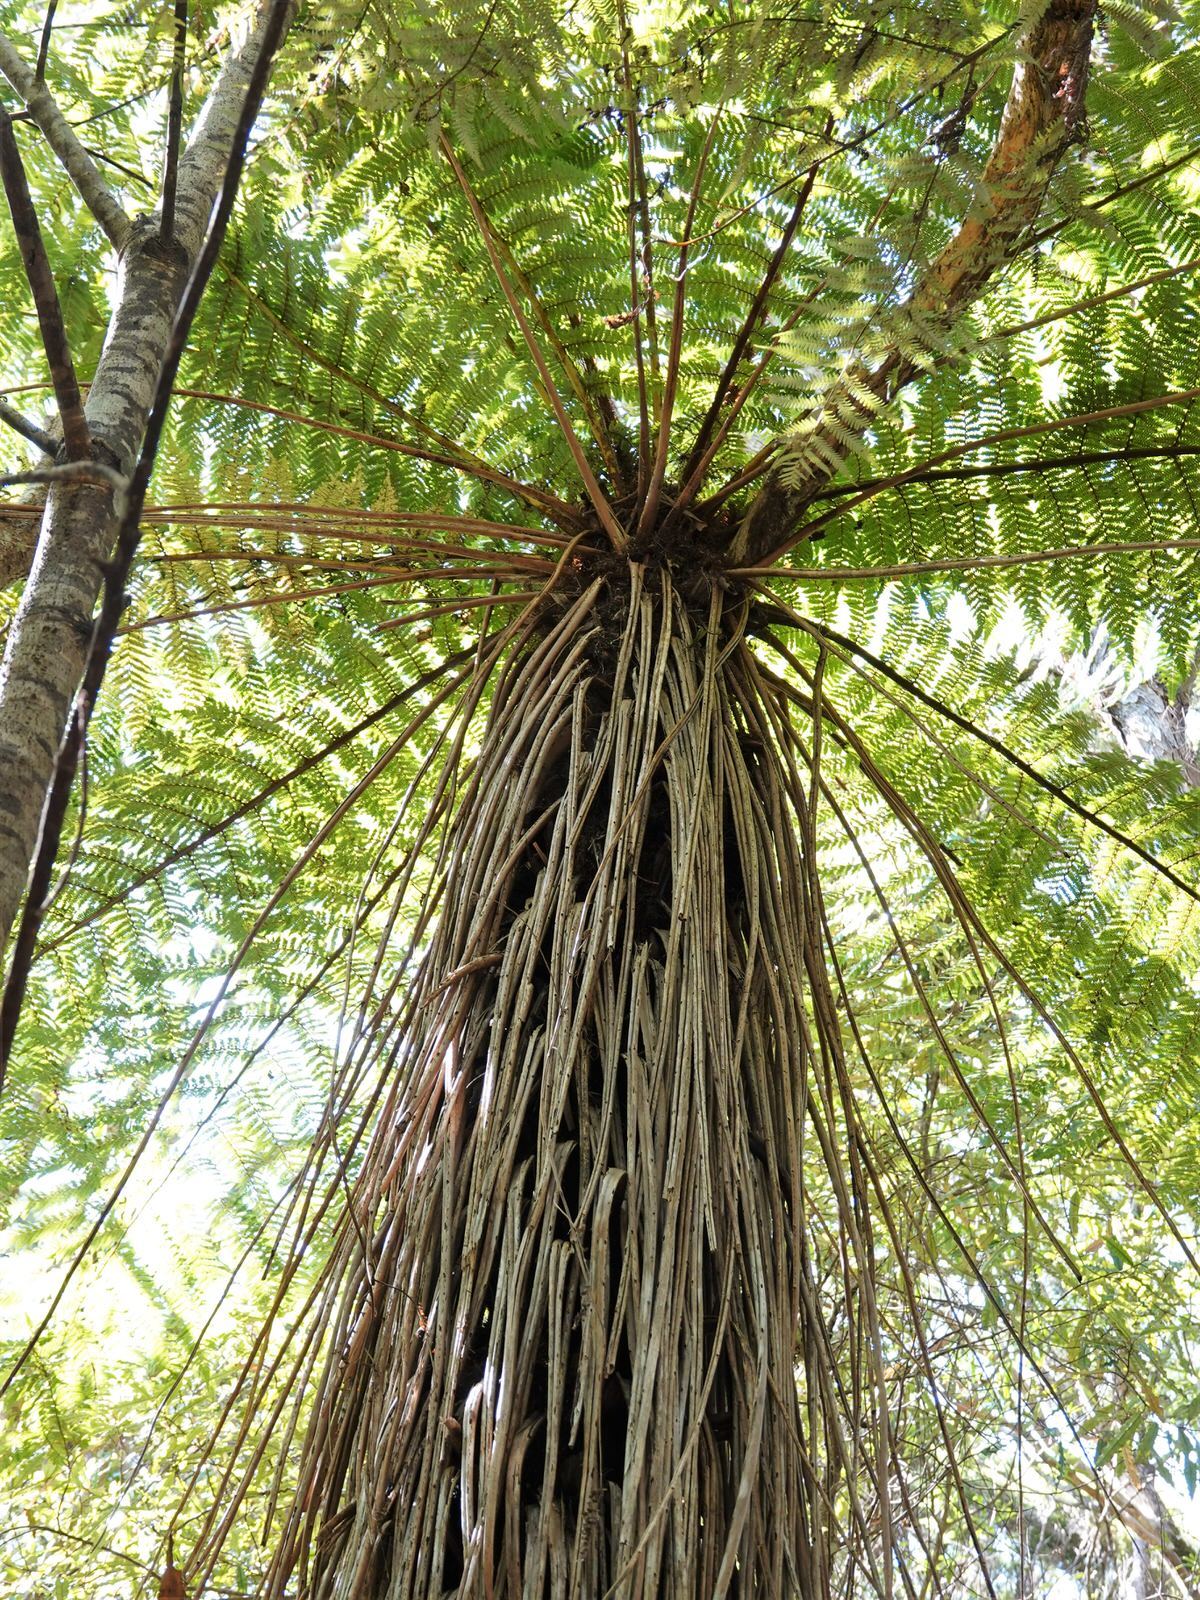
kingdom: Plantae
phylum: Tracheophyta
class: Polypodiopsida
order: Cyatheales
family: Cyatheaceae
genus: Alsophila
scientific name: Alsophila smithii
